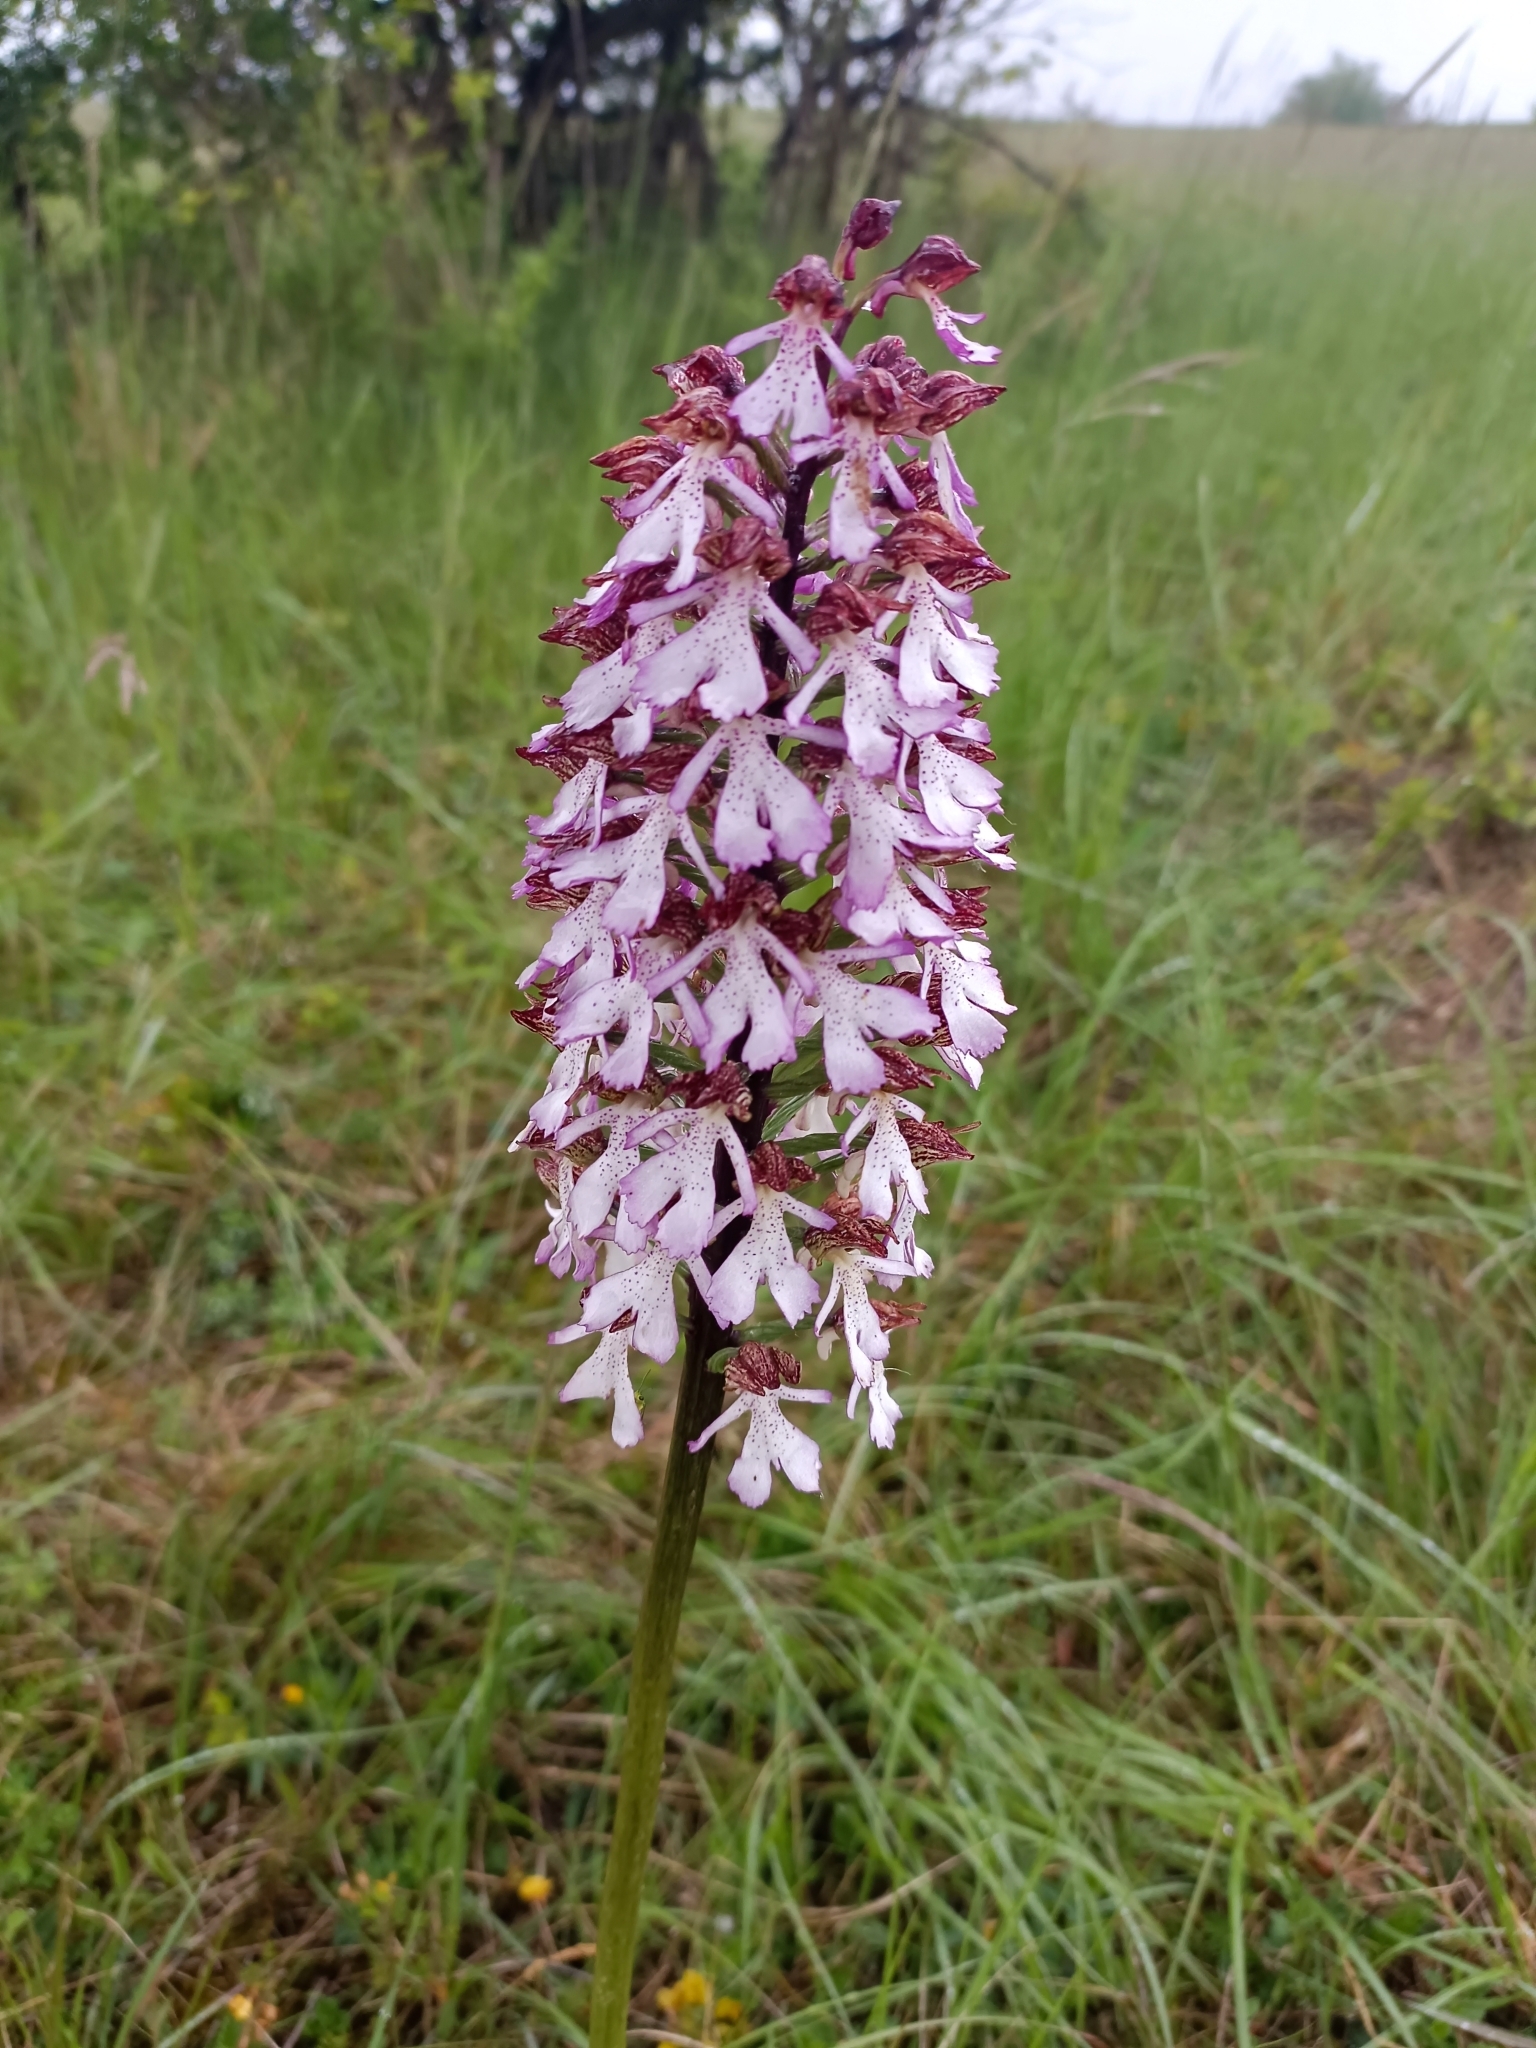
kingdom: Plantae
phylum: Tracheophyta
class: Liliopsida
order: Asparagales
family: Orchidaceae
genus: Orchis
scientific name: Orchis purpurea
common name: Lady orchid
